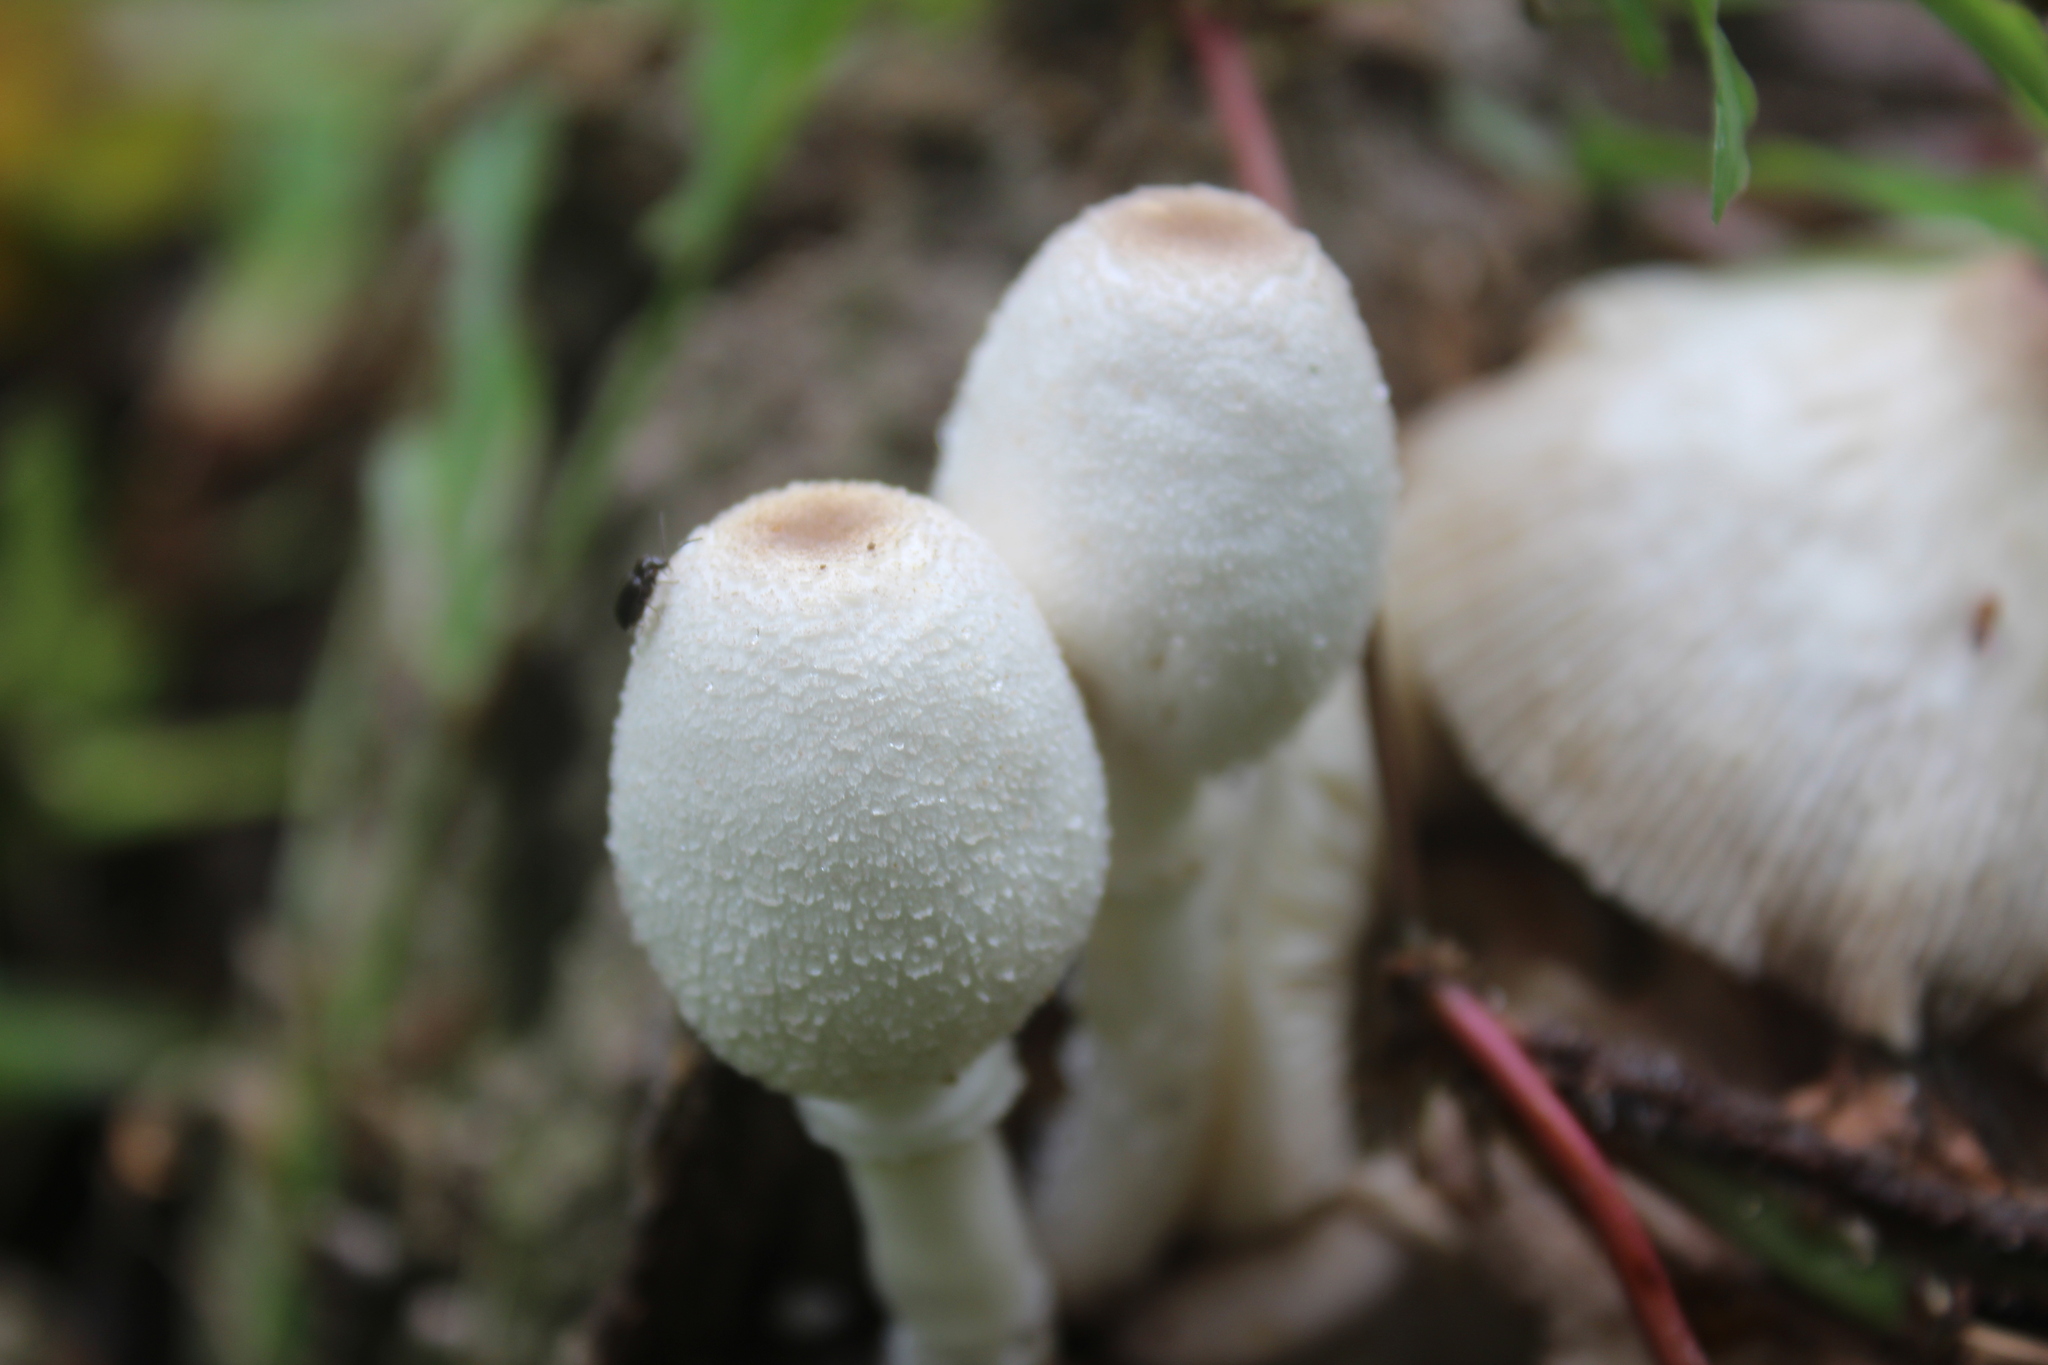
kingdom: Fungi
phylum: Basidiomycota
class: Agaricomycetes
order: Agaricales
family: Agaricaceae
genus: Leucocoprinus
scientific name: Leucocoprinus cepistipes
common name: Onion-stalk parasol
